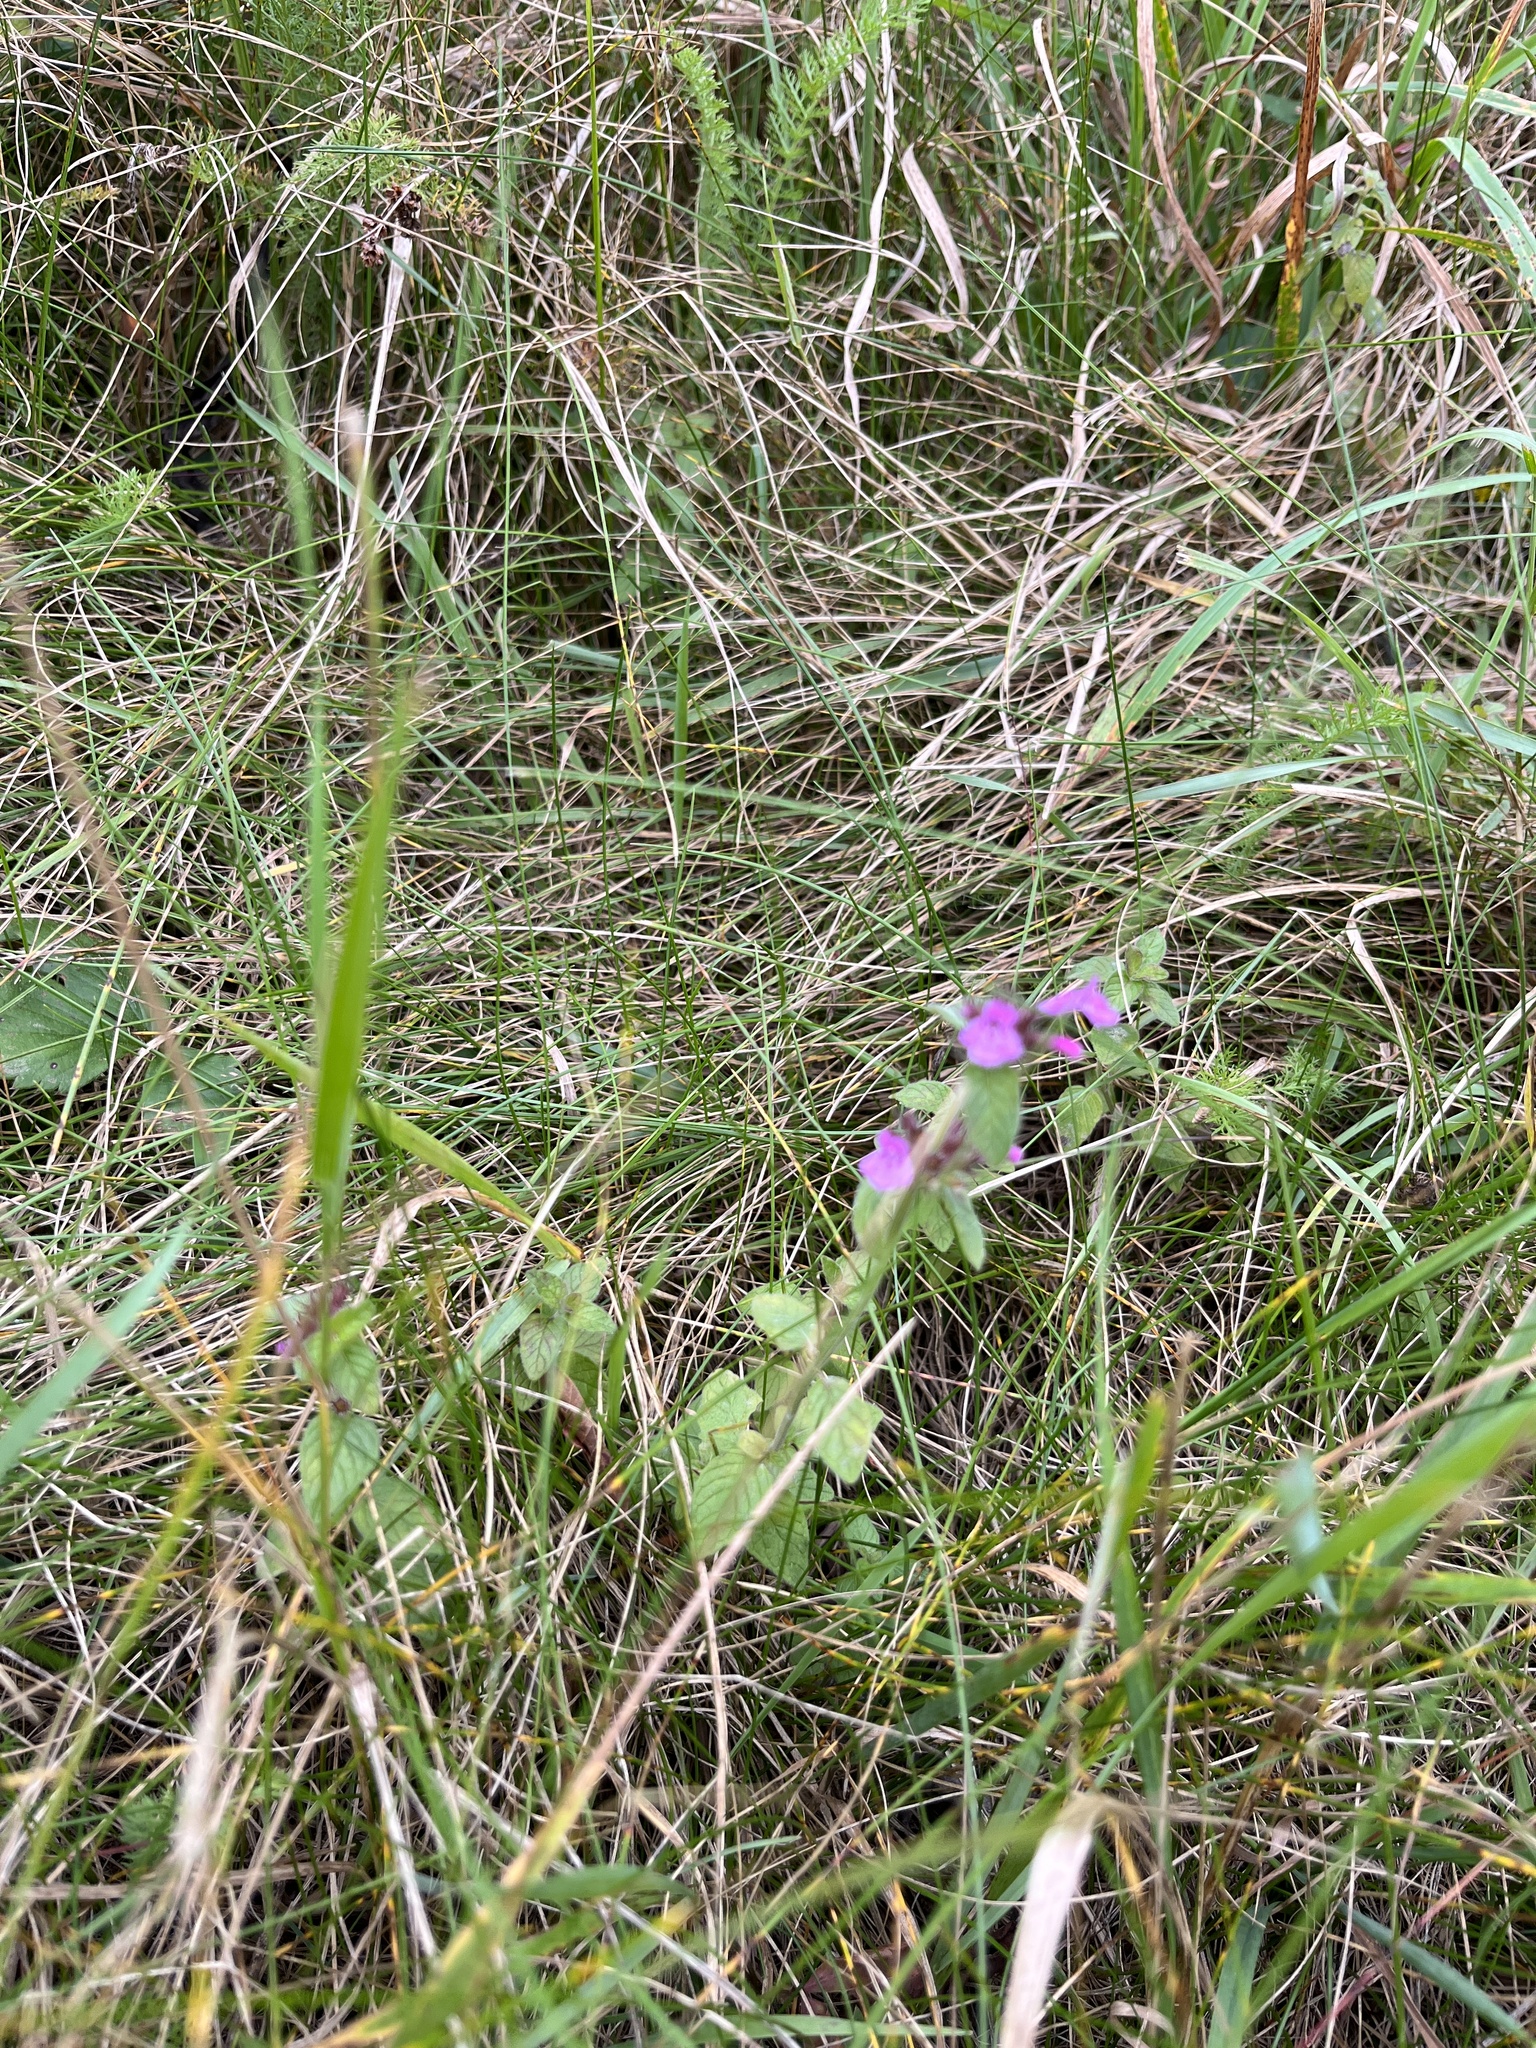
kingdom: Plantae
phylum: Tracheophyta
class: Magnoliopsida
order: Lamiales
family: Lamiaceae
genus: Clinopodium
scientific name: Clinopodium vulgare
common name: Wild basil
